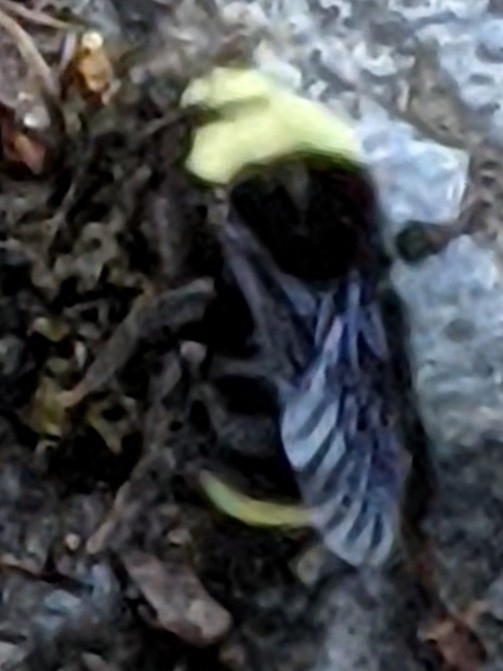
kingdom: Animalia
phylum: Arthropoda
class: Insecta
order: Hymenoptera
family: Apidae
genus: Bombus
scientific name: Bombus vosnesenskii
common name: Vosnesensky bumble bee
